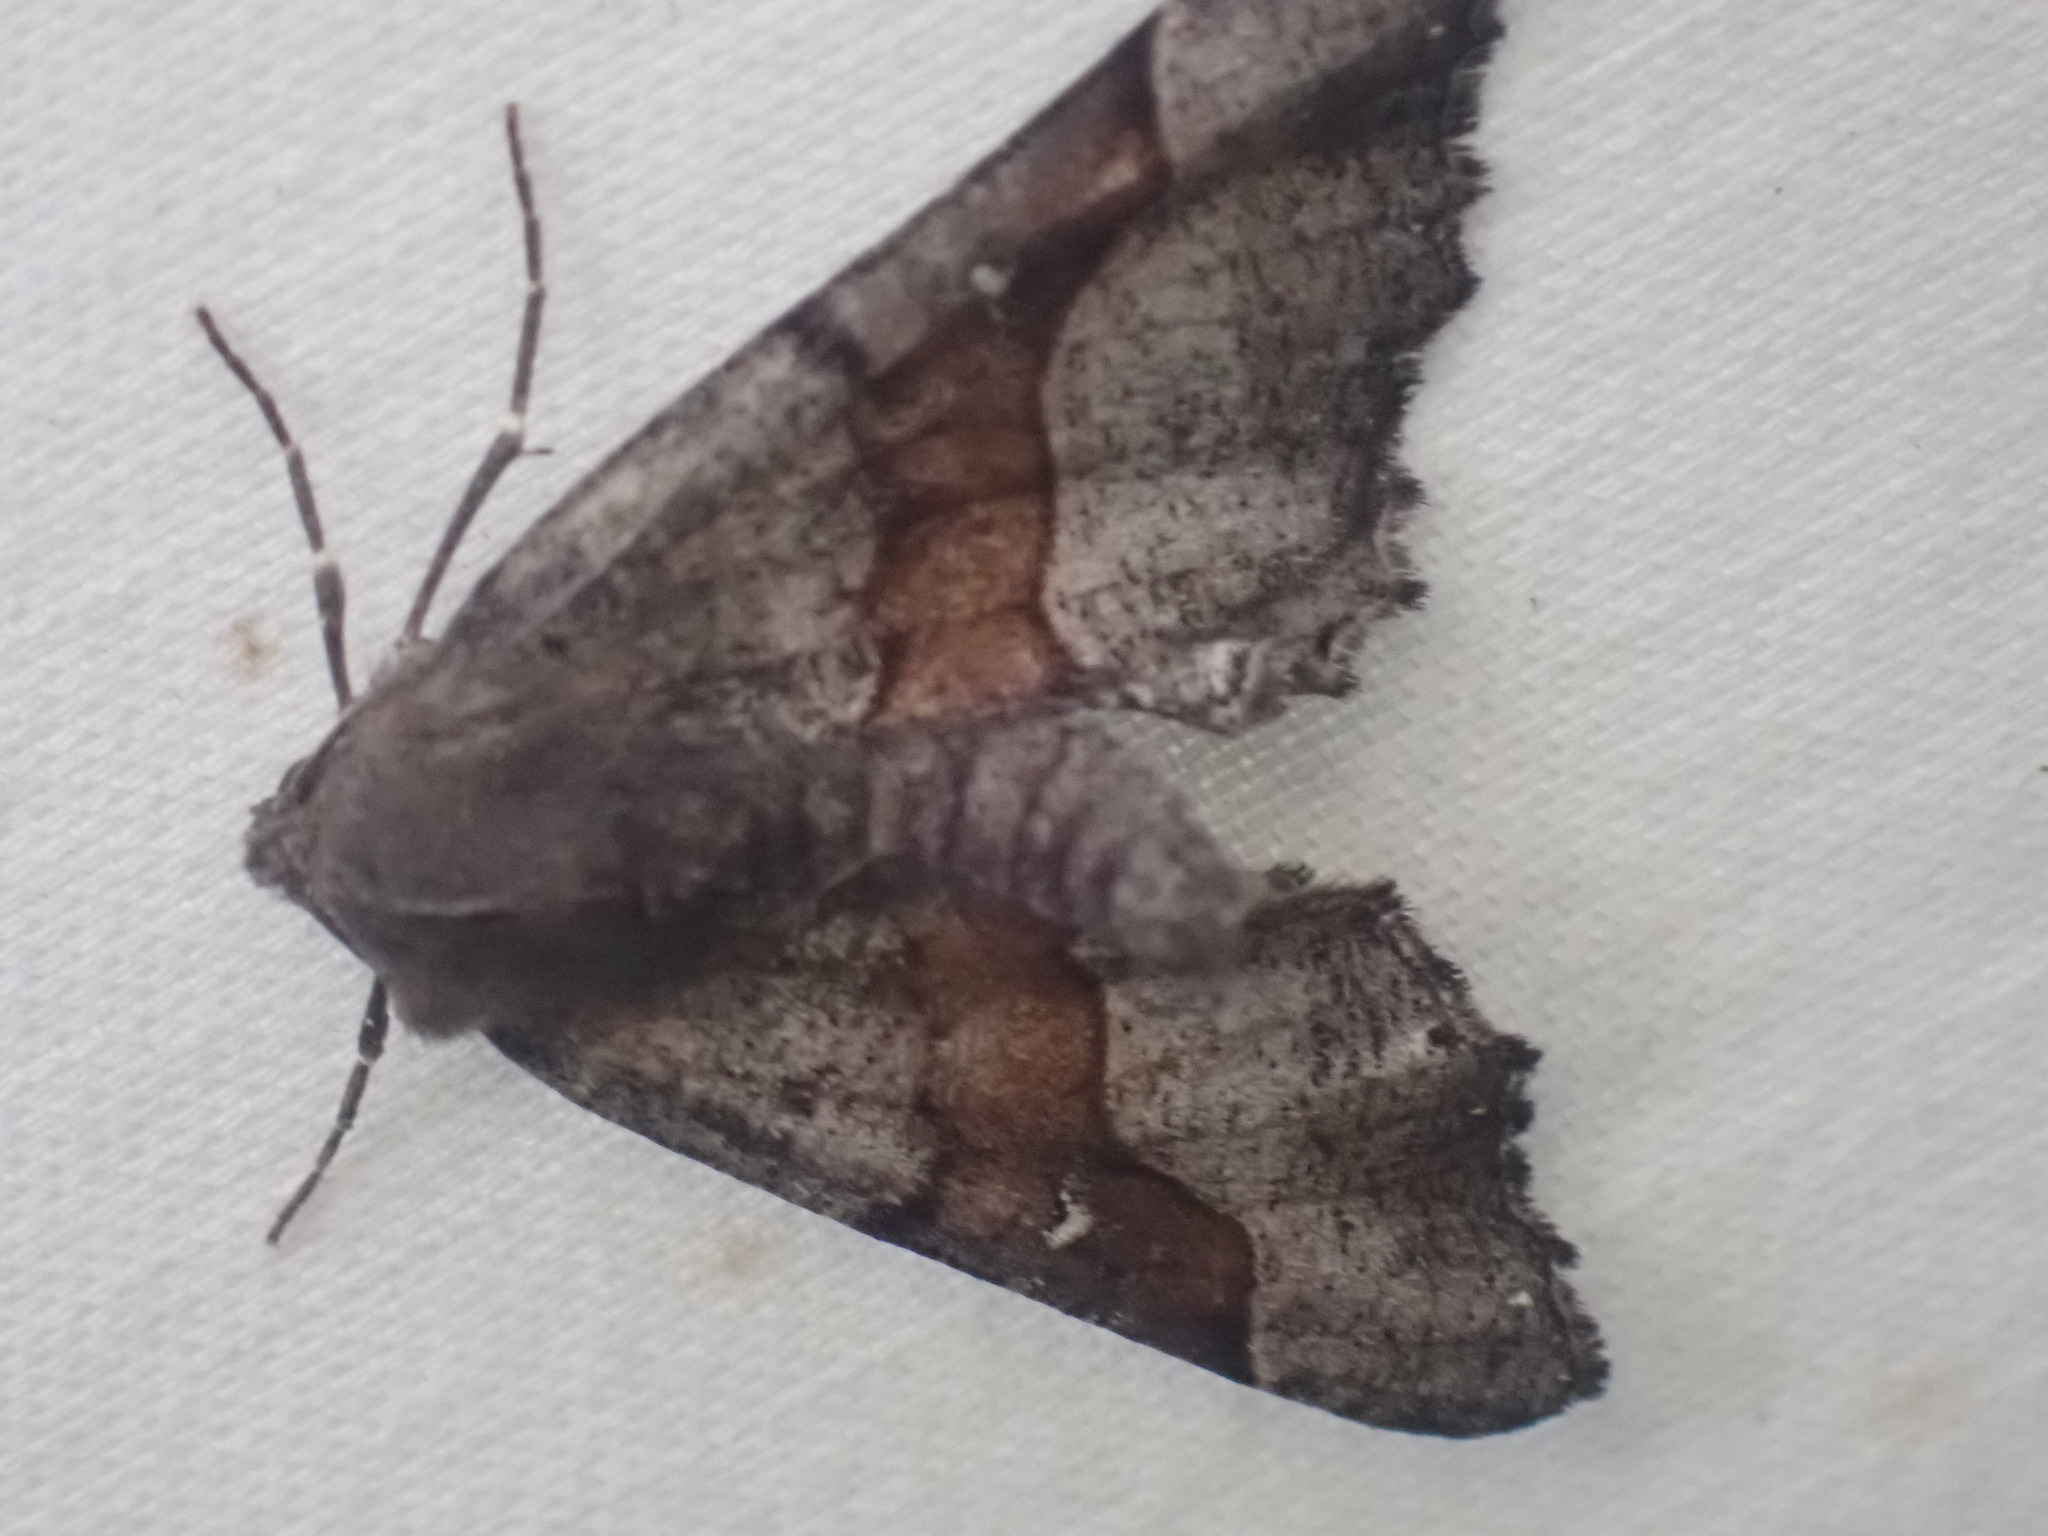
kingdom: Animalia
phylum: Arthropoda
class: Insecta
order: Lepidoptera
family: Geometridae
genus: Pero
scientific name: Pero behrensaria
